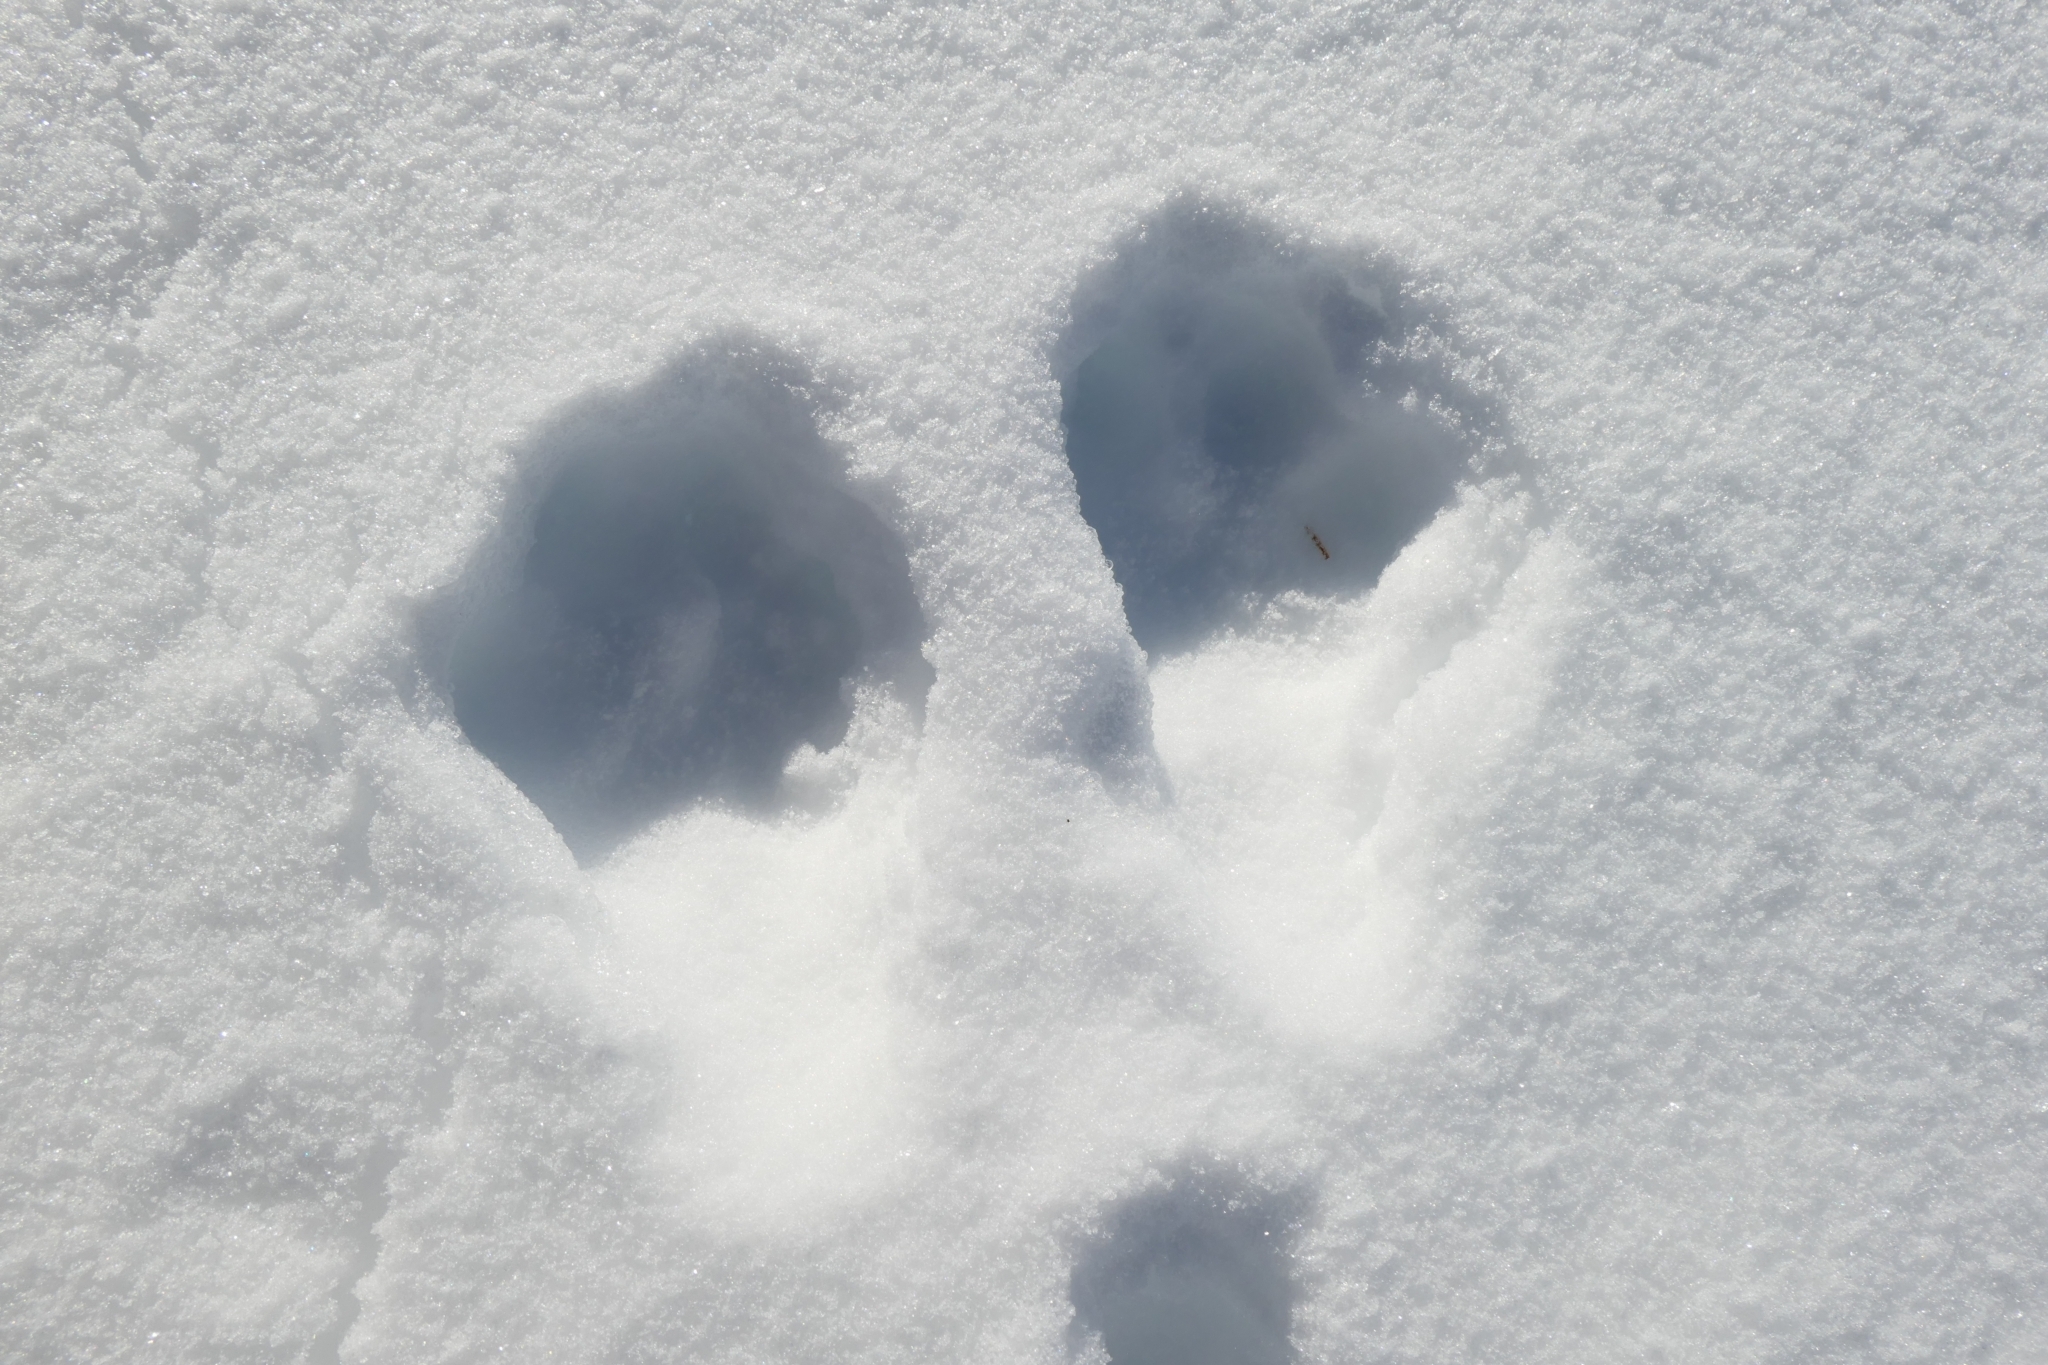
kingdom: Animalia
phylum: Chordata
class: Mammalia
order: Lagomorpha
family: Leporidae
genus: Lepus
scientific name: Lepus timidus
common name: Mountain hare
